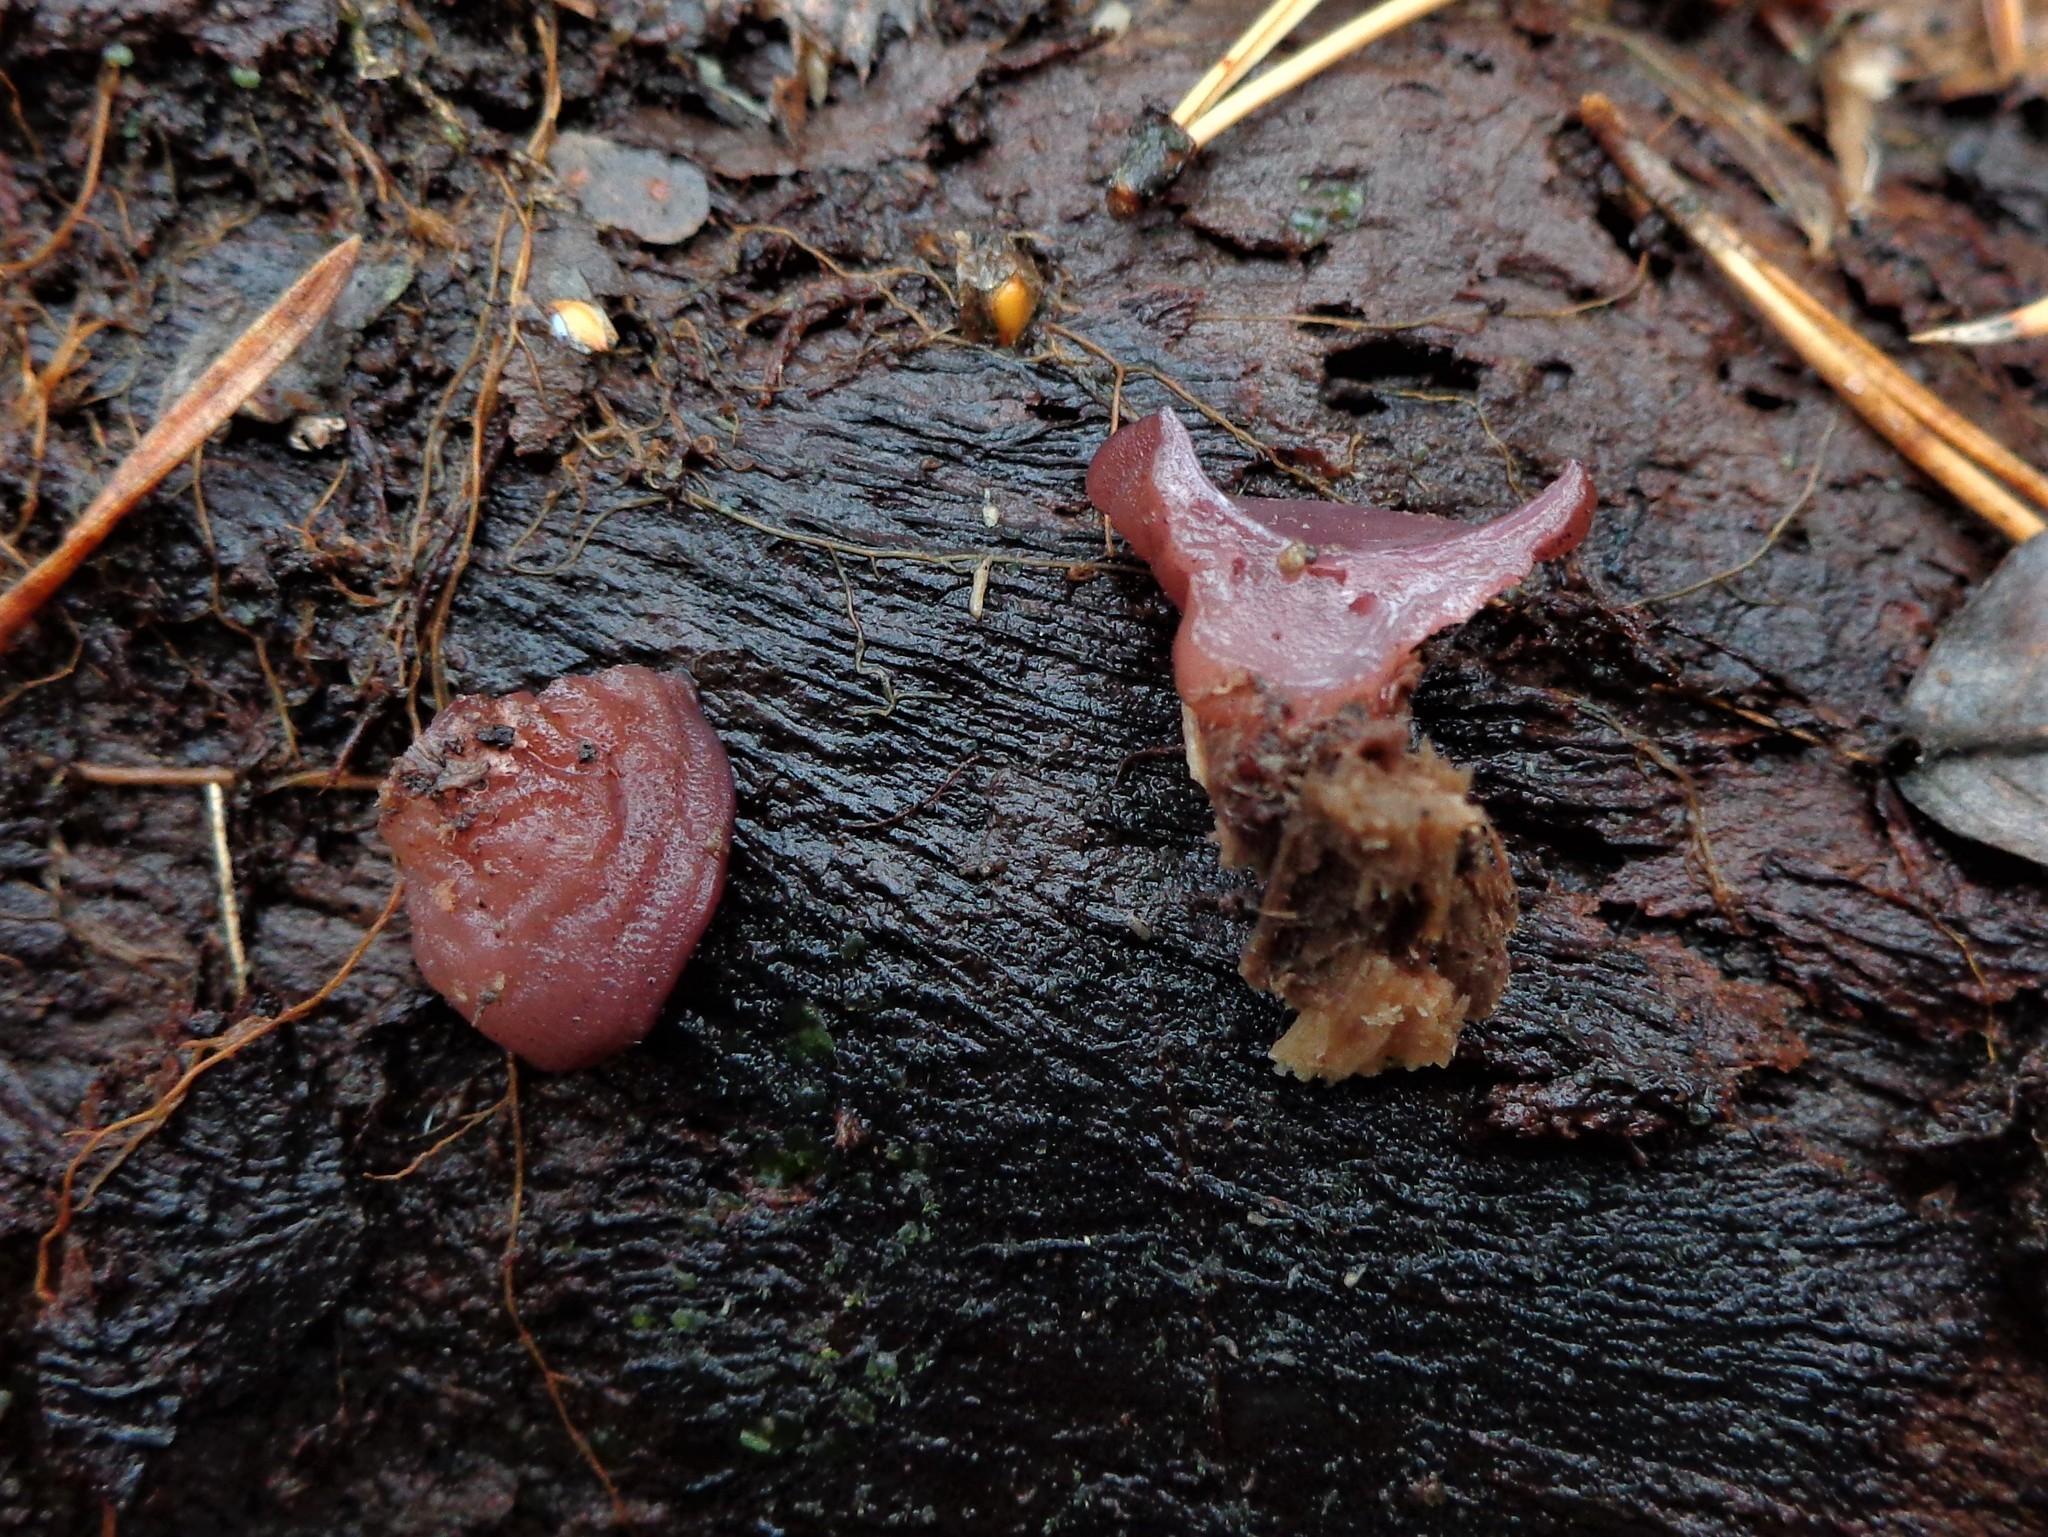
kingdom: Fungi
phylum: Ascomycota
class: Leotiomycetes
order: Helotiales
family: Gelatinodiscaceae
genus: Ascocoryne
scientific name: Ascocoryne cylichnium
